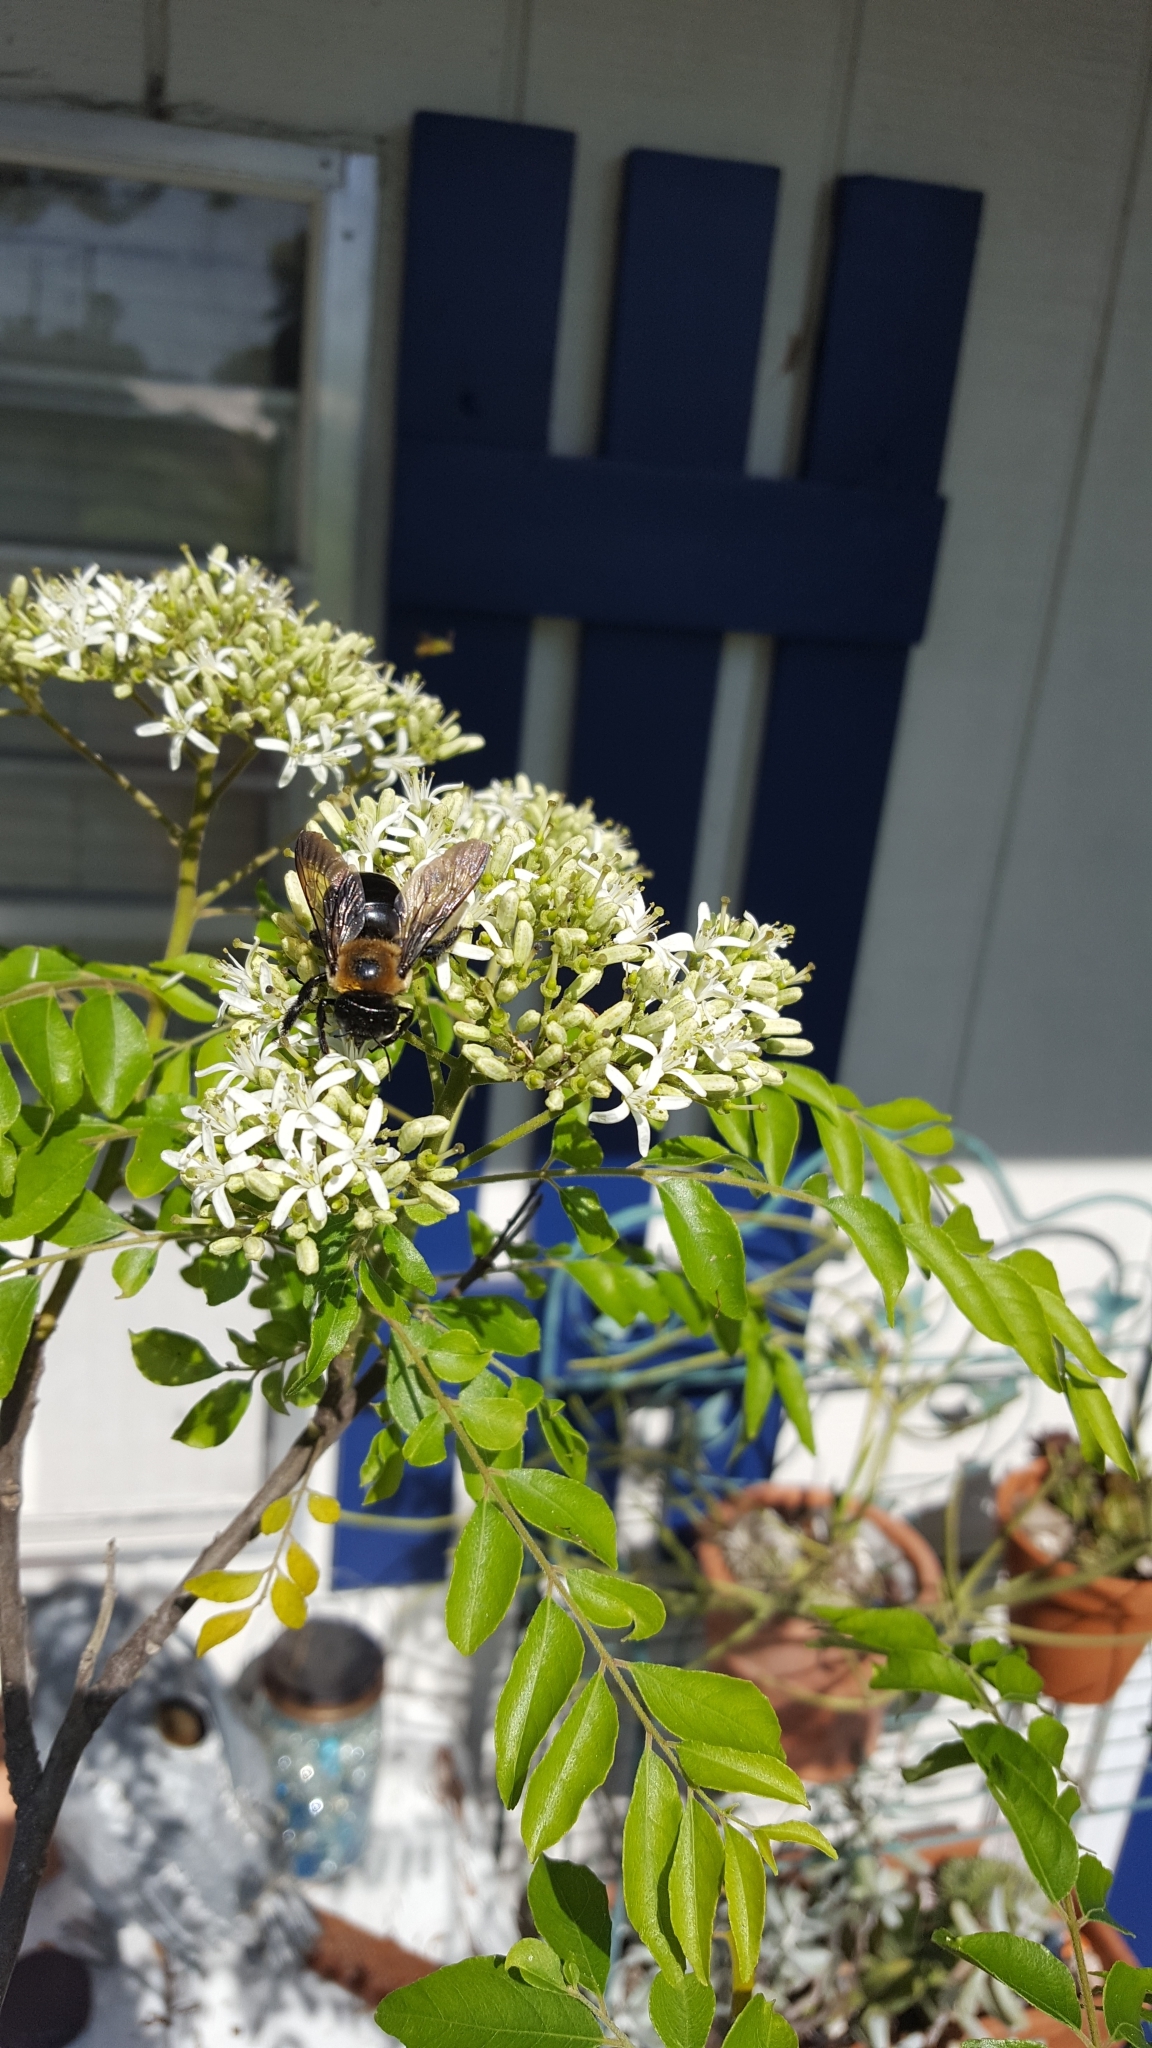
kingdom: Animalia
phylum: Arthropoda
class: Insecta
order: Hymenoptera
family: Apidae
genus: Xylocopa
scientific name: Xylocopa virginica
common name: Carpenter bee
